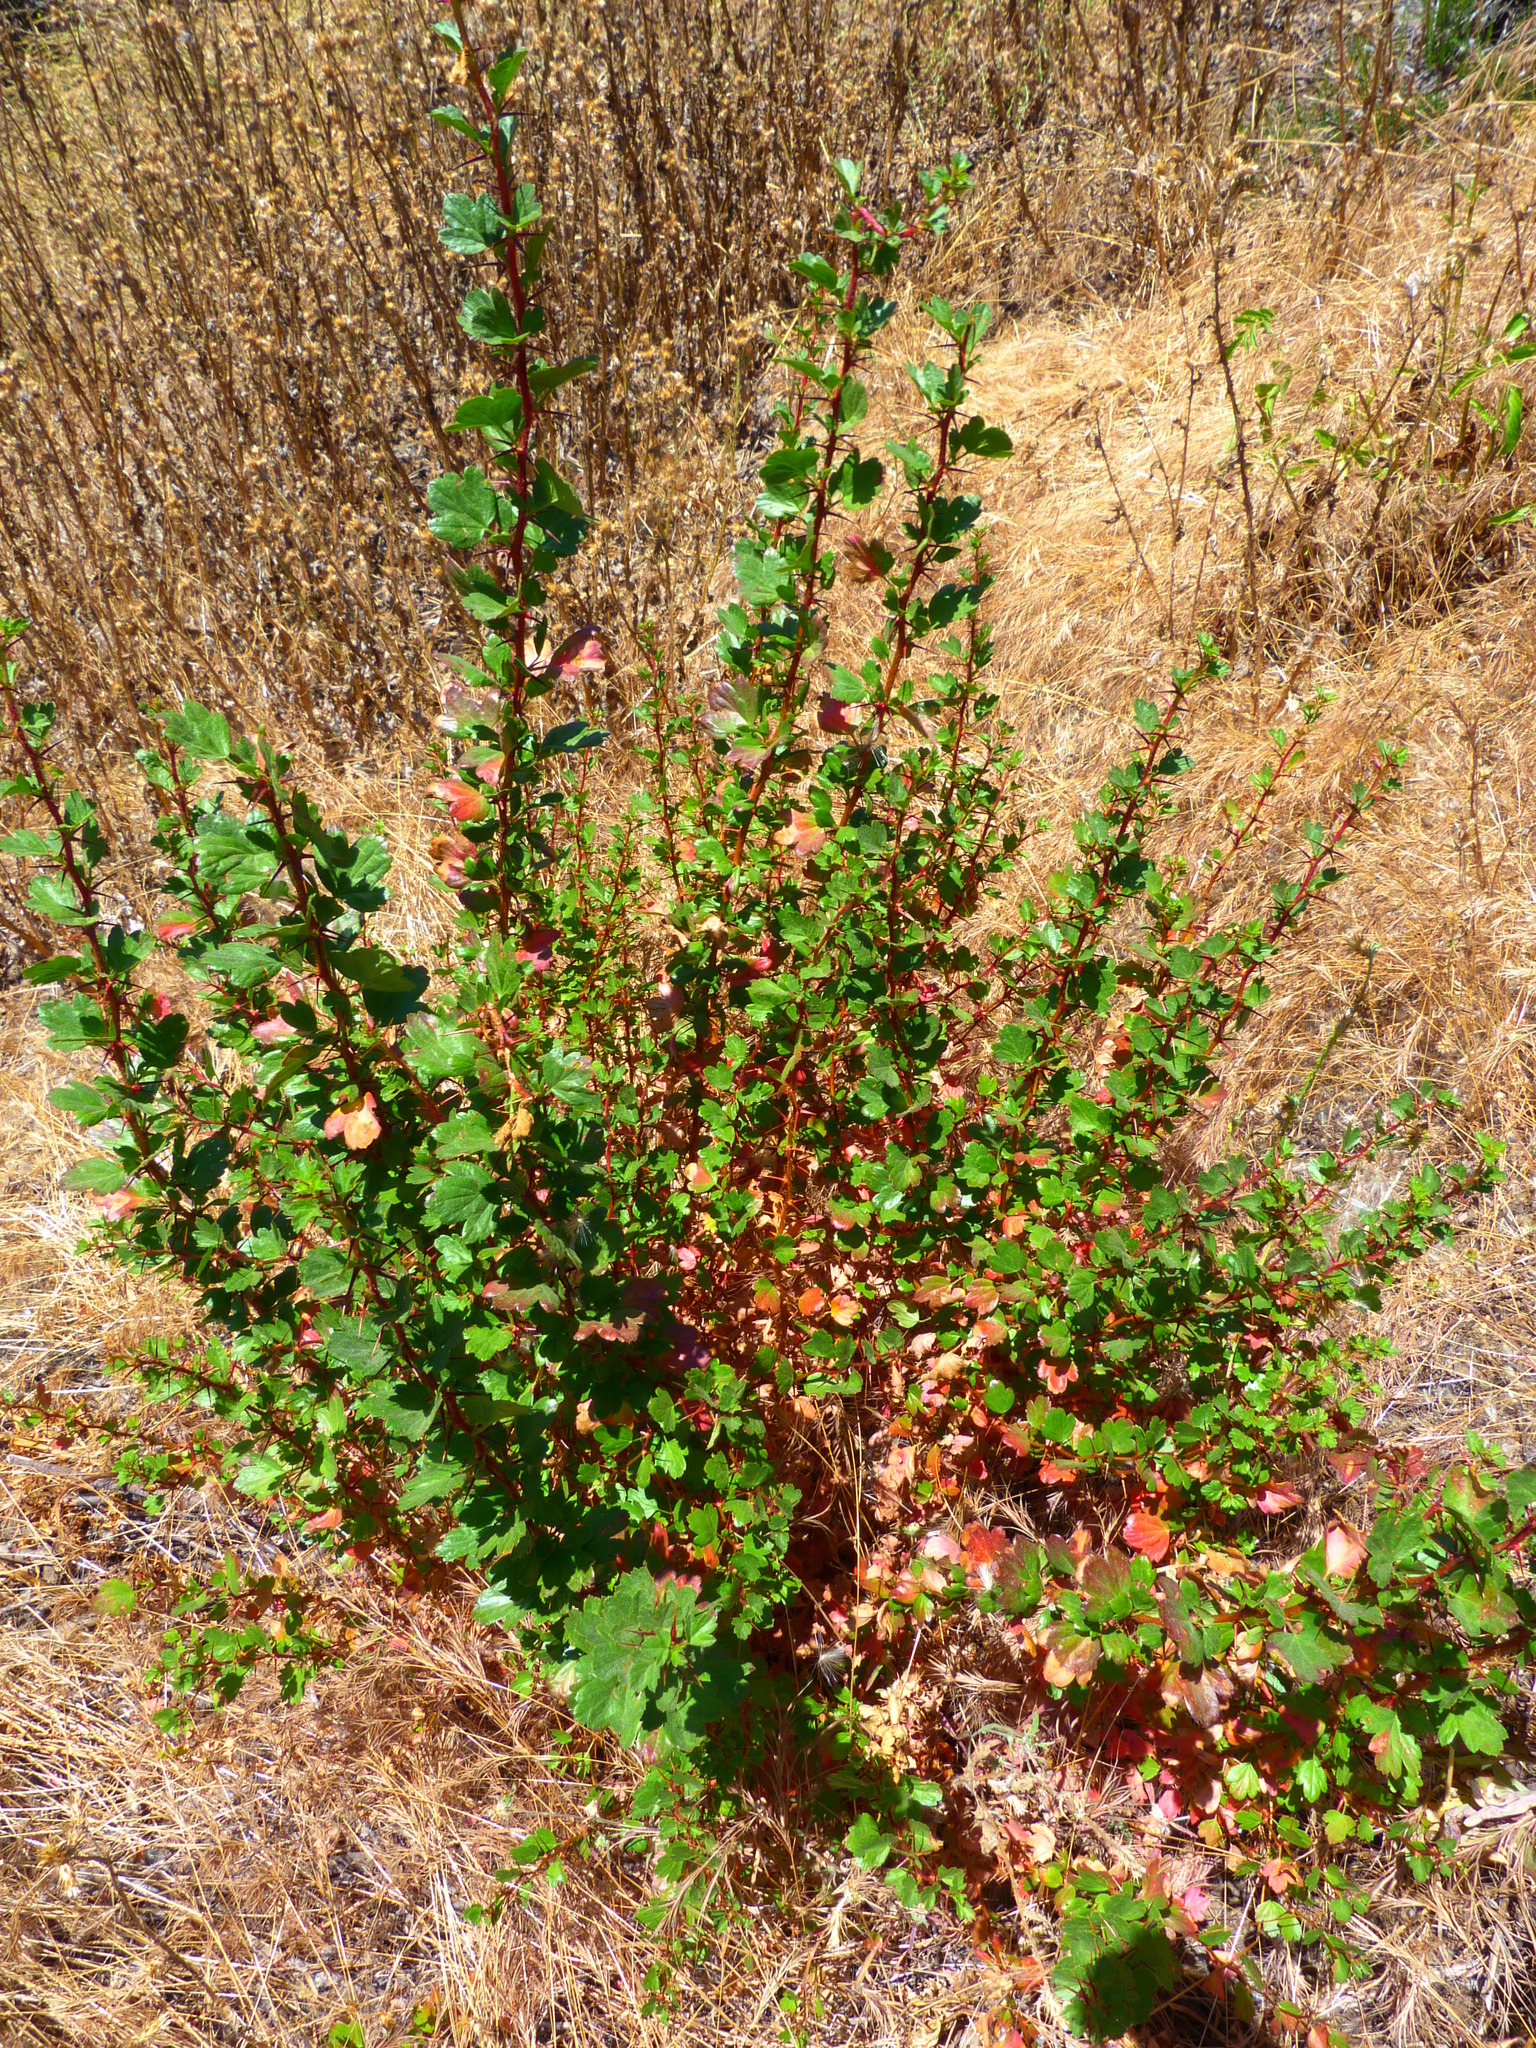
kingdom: Plantae
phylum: Tracheophyta
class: Magnoliopsida
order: Saxifragales
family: Grossulariaceae
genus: Ribes
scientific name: Ribes speciosum
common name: Fuchsia-flower gooseberry
